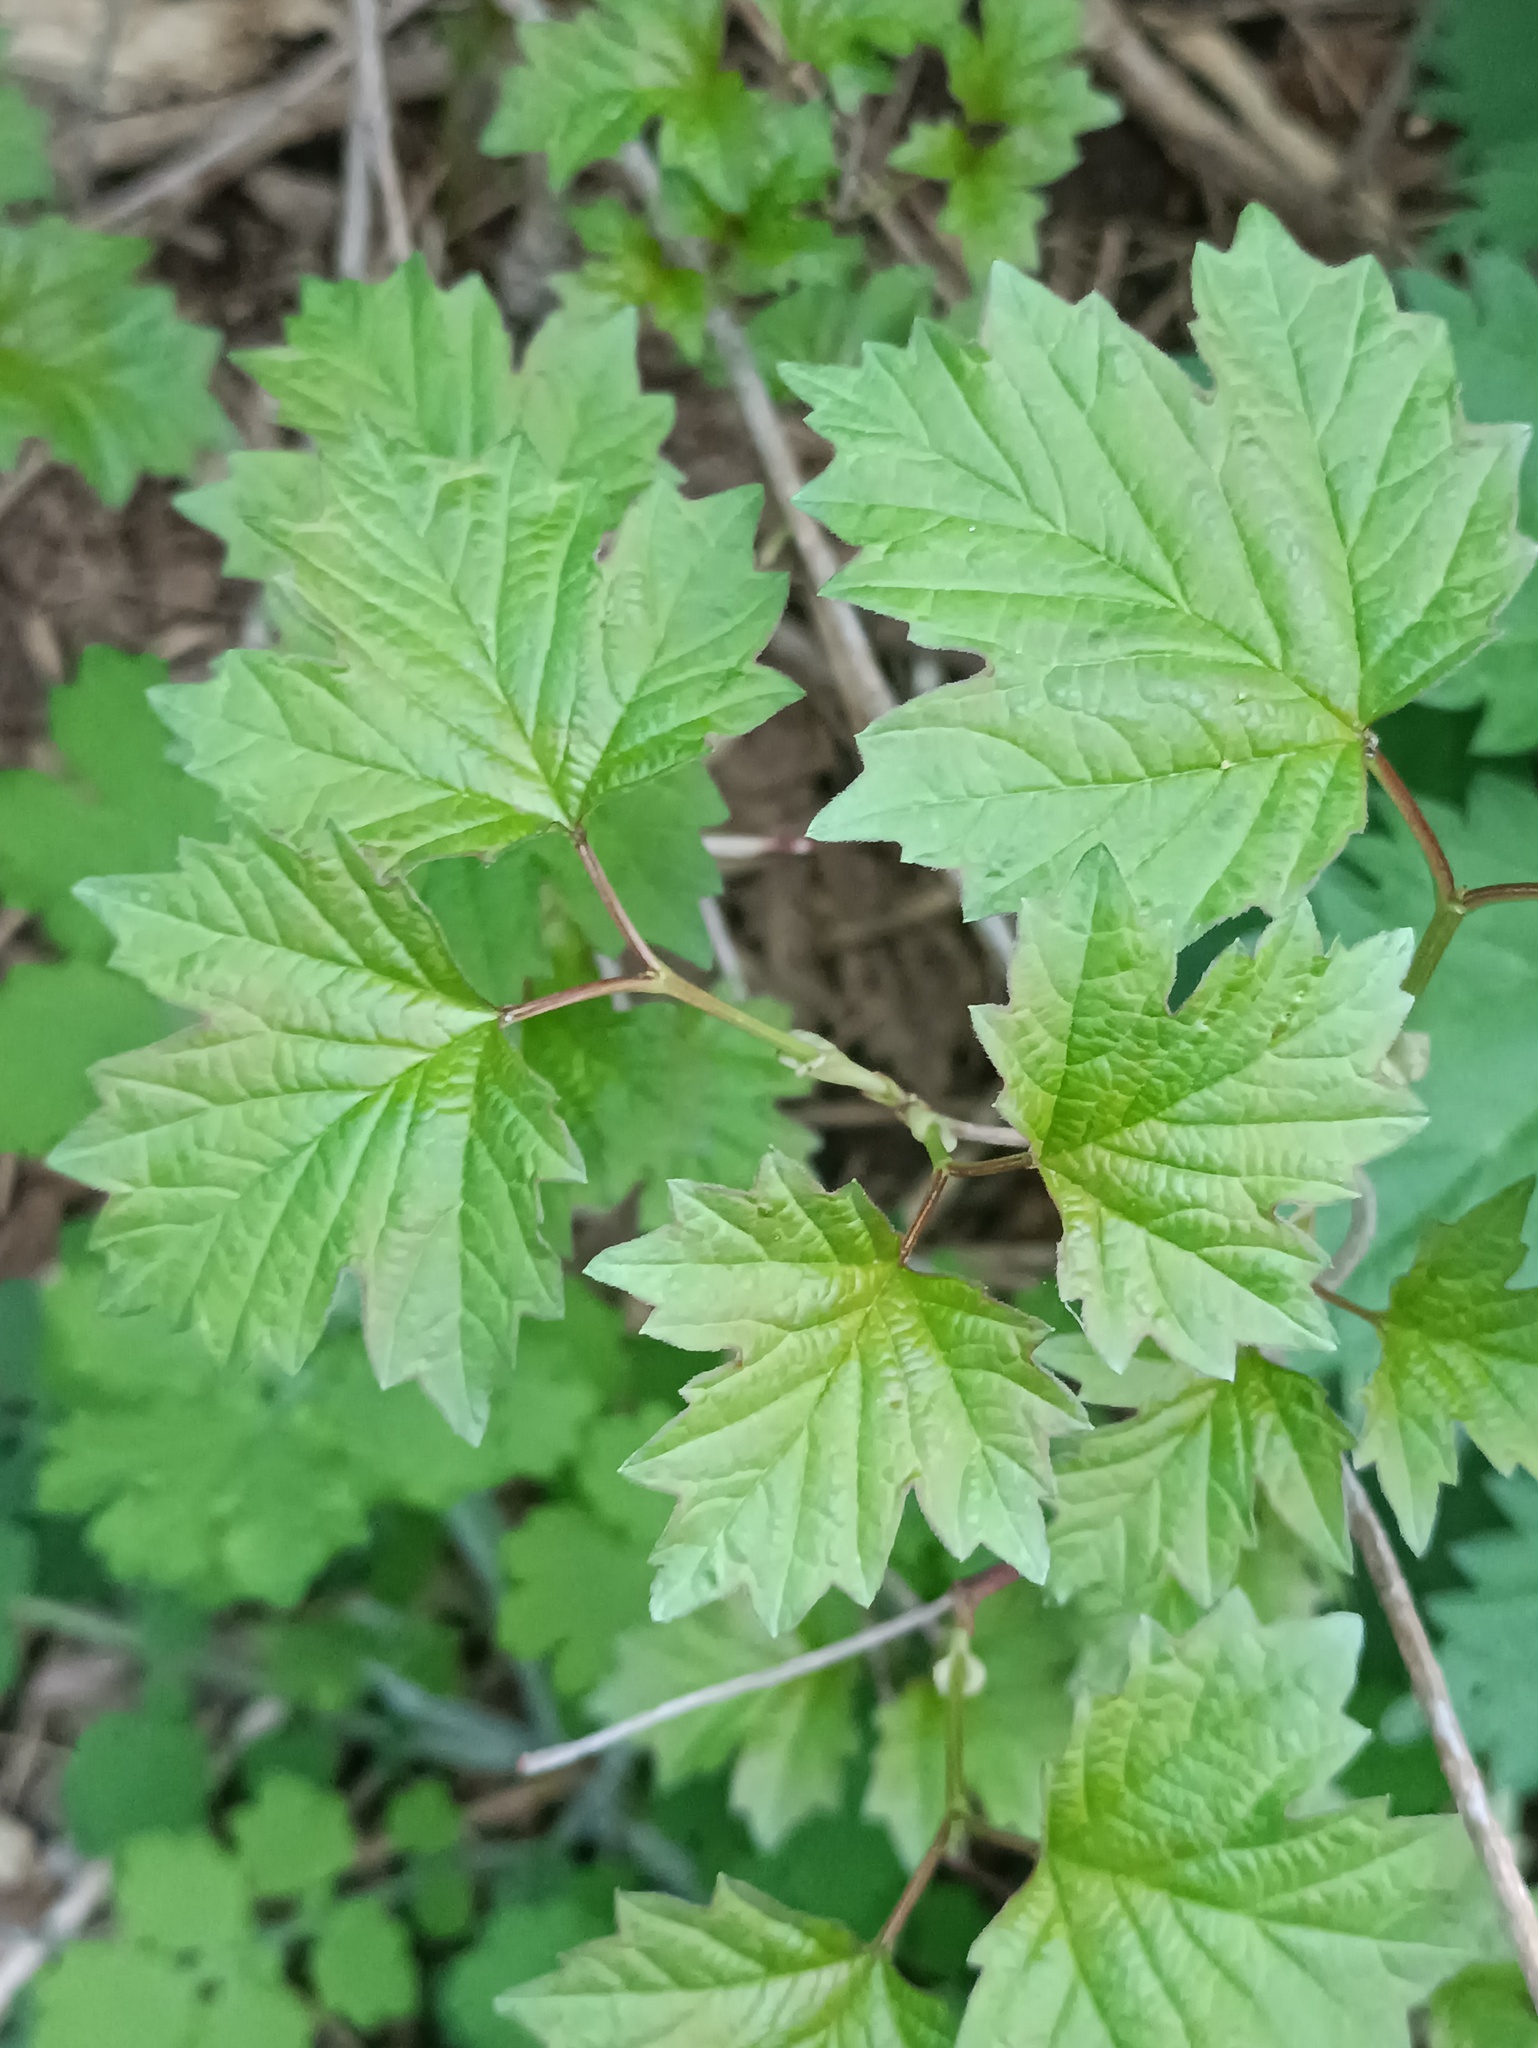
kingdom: Plantae
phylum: Tracheophyta
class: Magnoliopsida
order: Dipsacales
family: Viburnaceae
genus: Viburnum
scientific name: Viburnum opulus
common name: Guelder-rose
